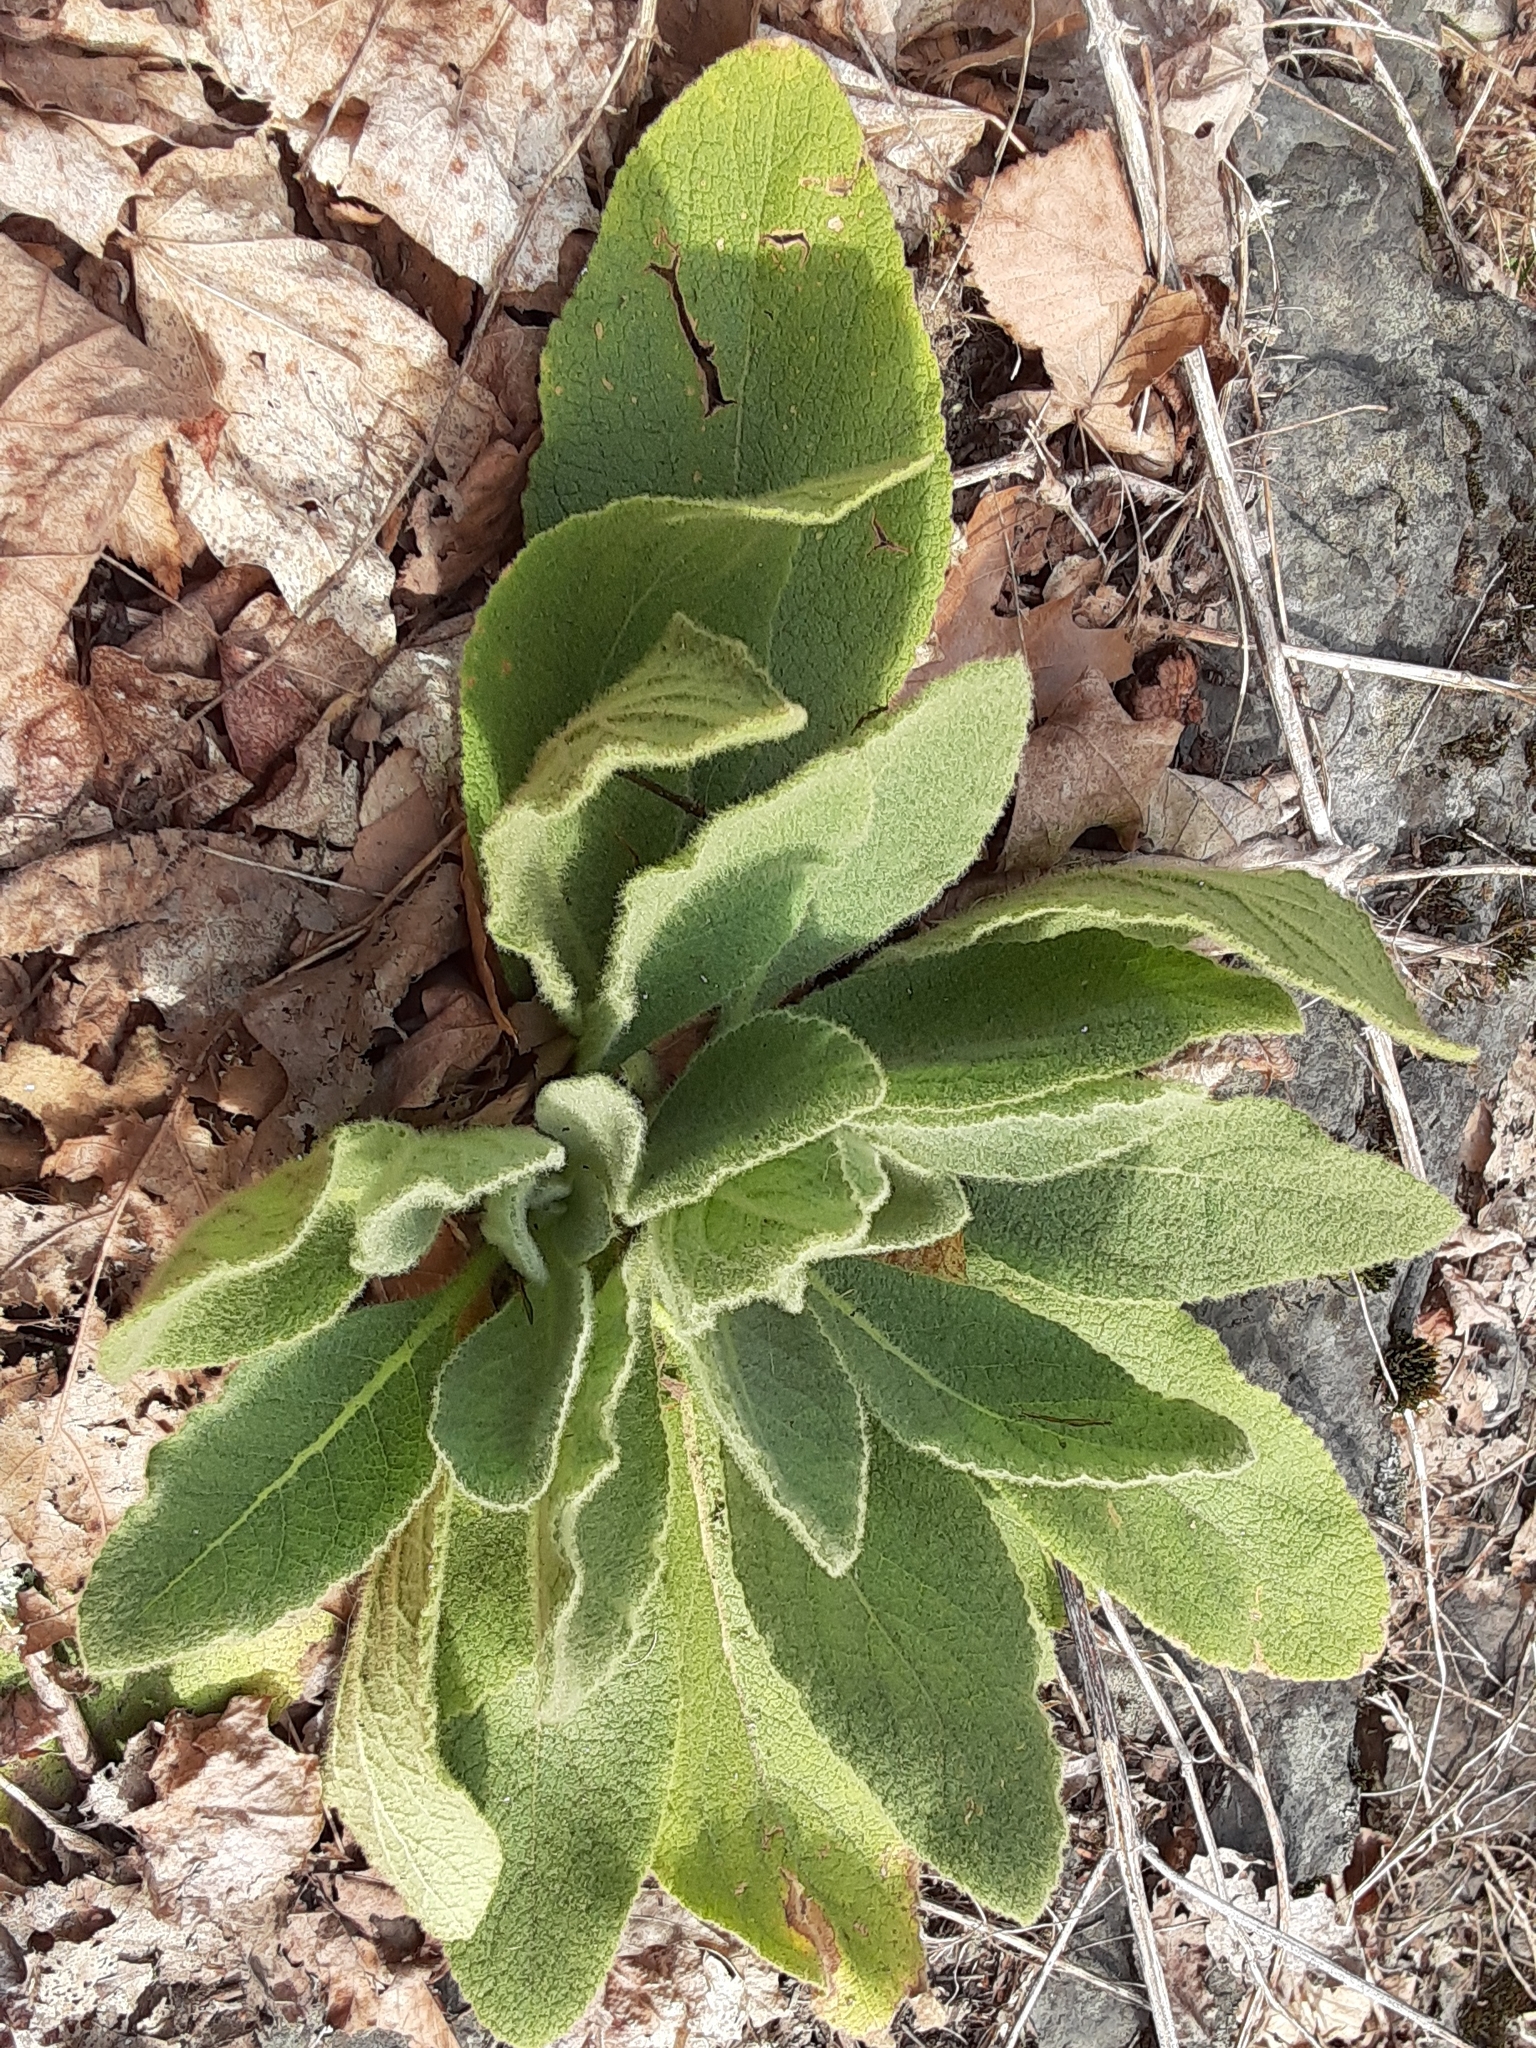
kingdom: Plantae
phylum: Tracheophyta
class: Magnoliopsida
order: Lamiales
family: Scrophulariaceae
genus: Verbascum
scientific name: Verbascum thapsus
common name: Common mullein
